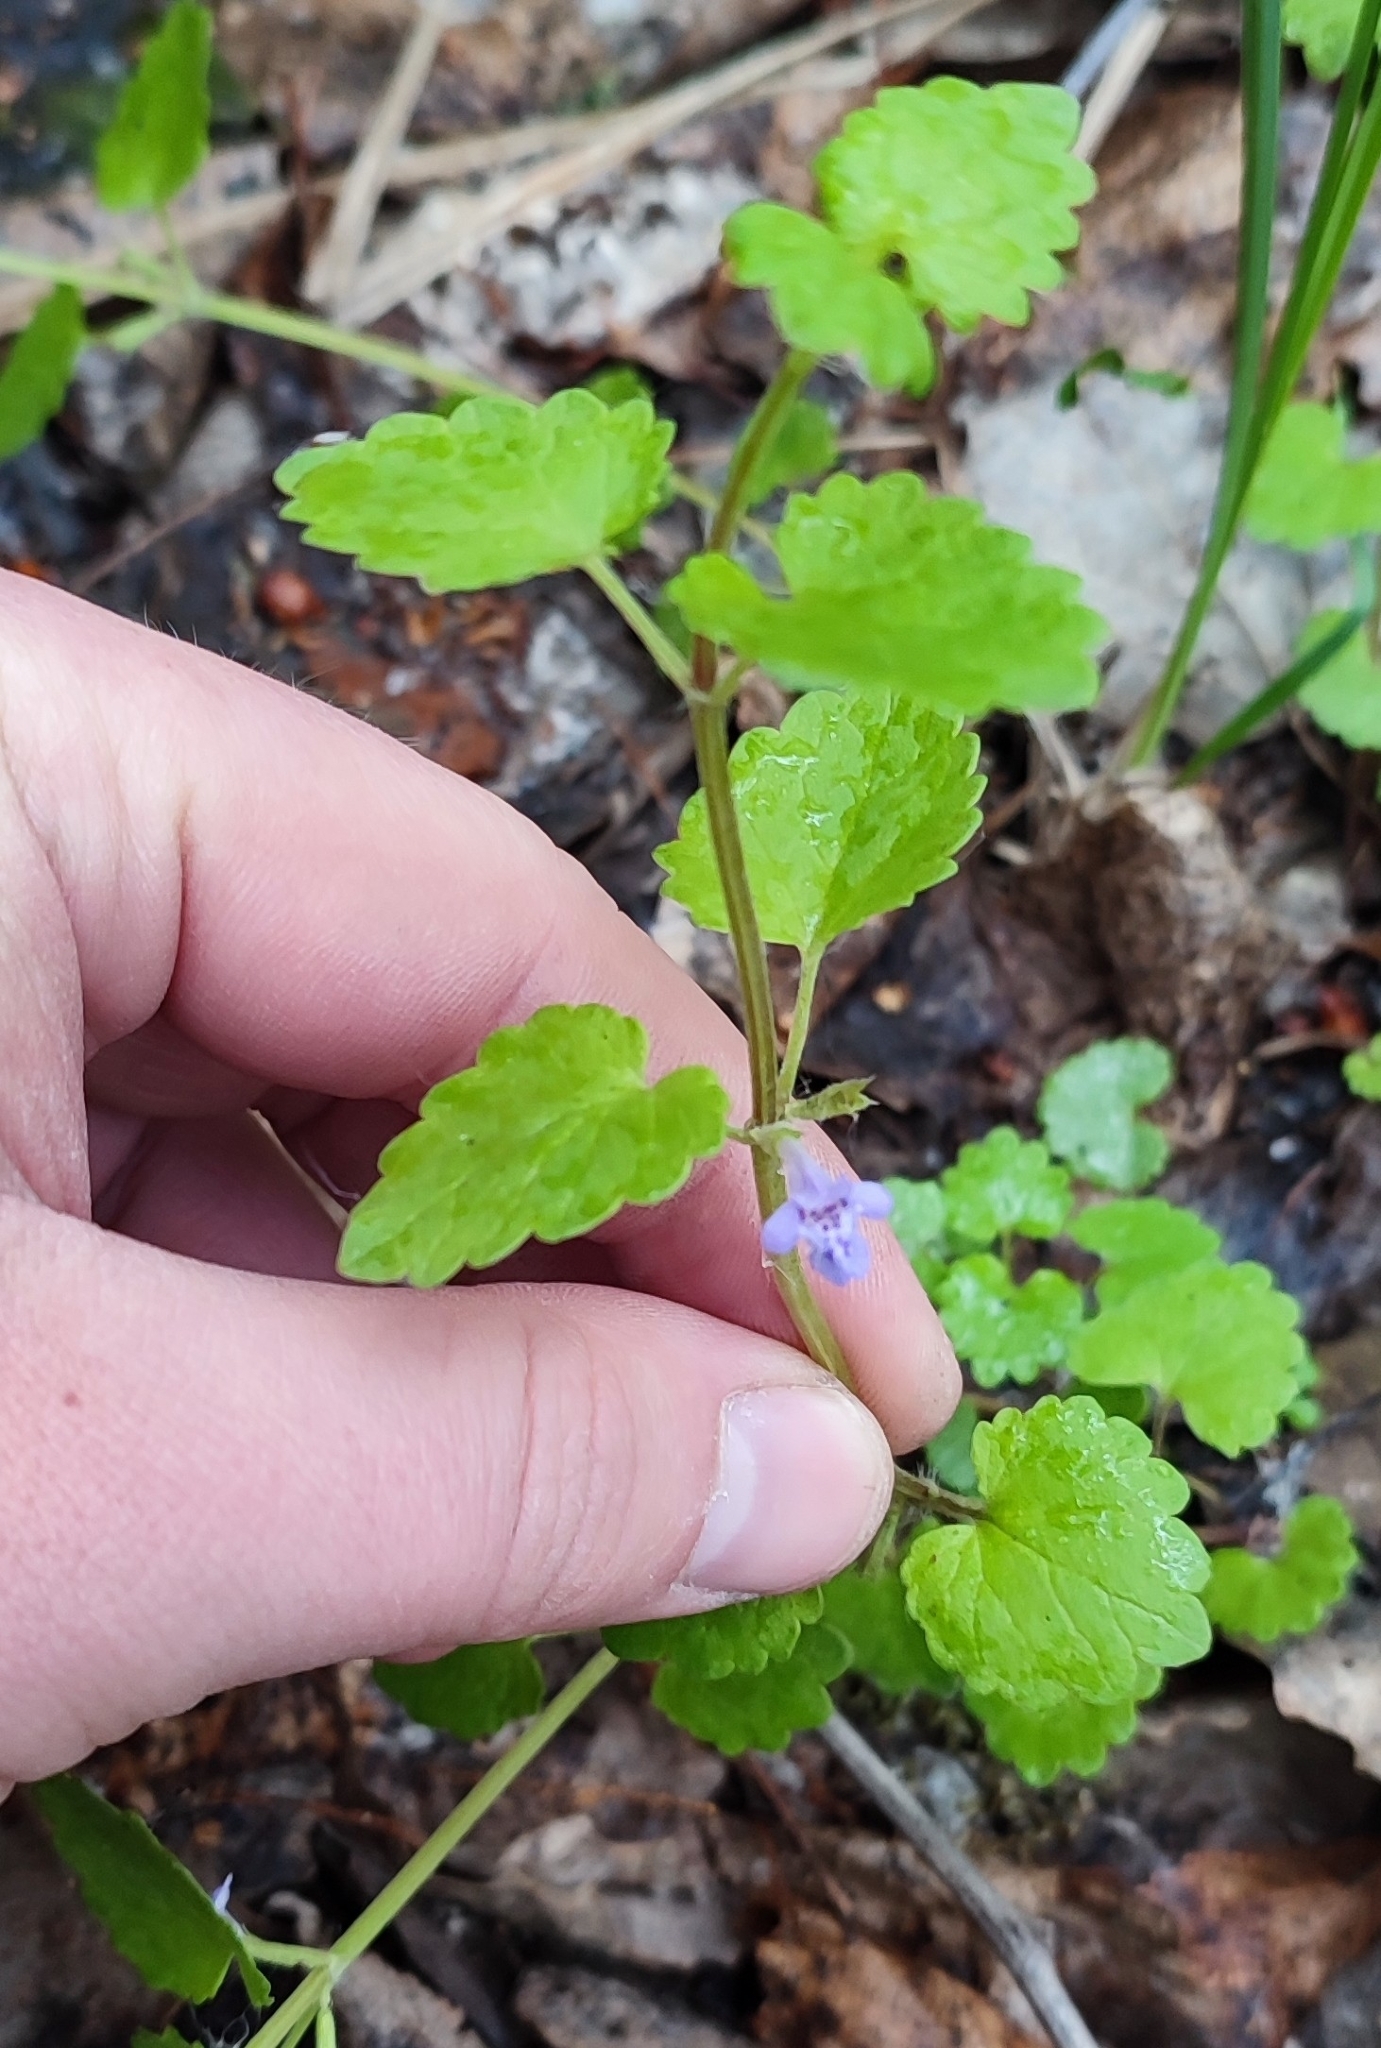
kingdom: Plantae
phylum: Tracheophyta
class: Magnoliopsida
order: Lamiales
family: Lamiaceae
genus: Glechoma
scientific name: Glechoma hederacea
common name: Ground ivy
